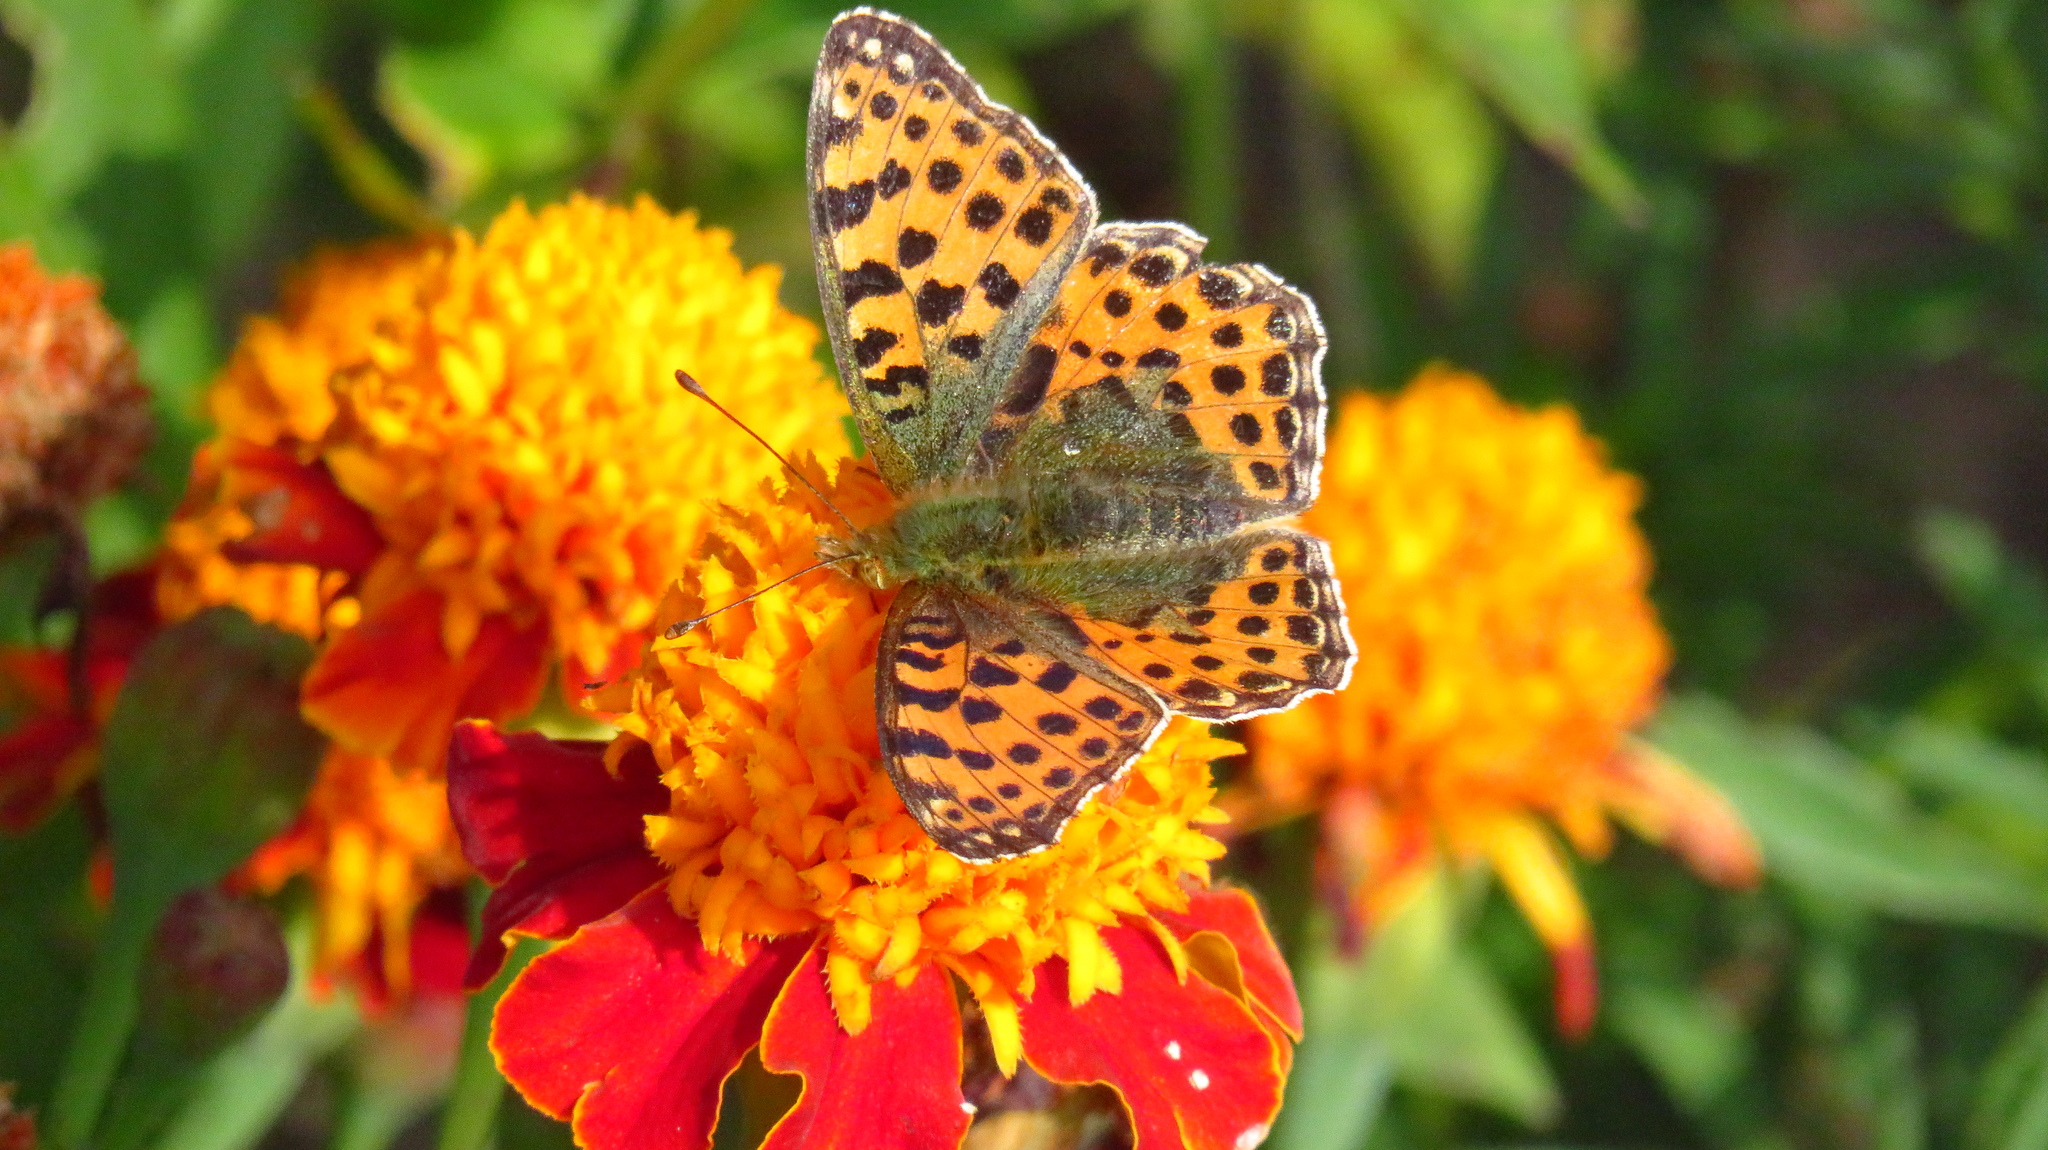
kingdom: Animalia
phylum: Arthropoda
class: Insecta
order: Lepidoptera
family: Nymphalidae
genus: Issoria
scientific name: Issoria lathonia
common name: Queen of spain fritillary
